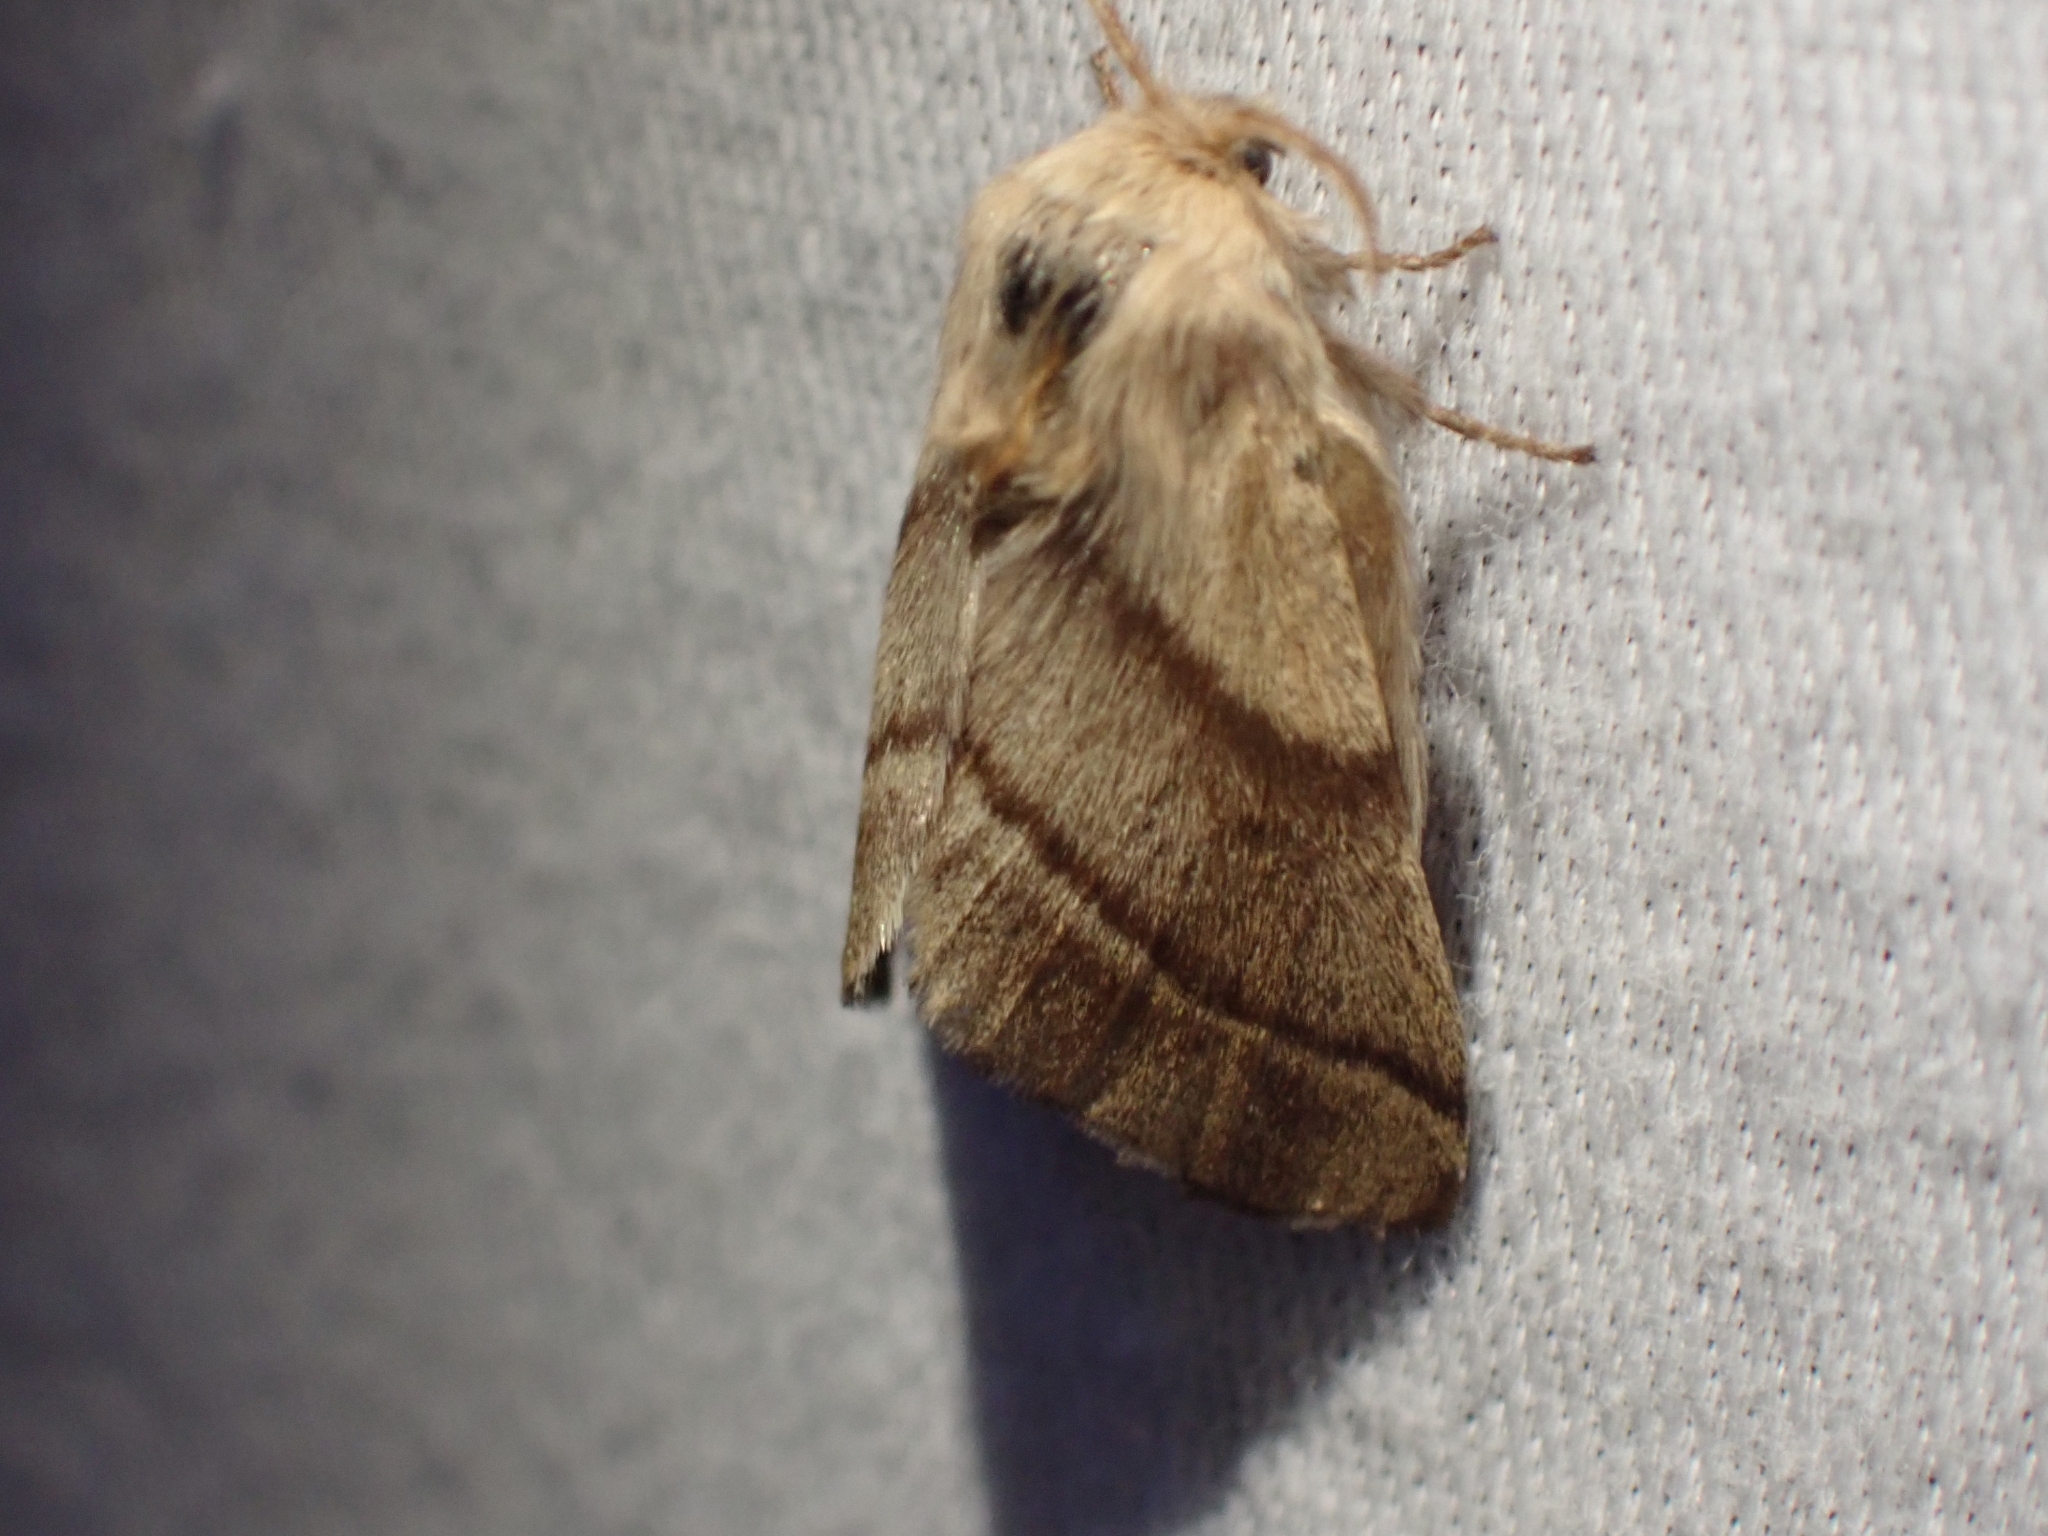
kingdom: Animalia
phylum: Arthropoda
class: Insecta
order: Lepidoptera
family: Lasiocampidae
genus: Malacosoma
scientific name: Malacosoma disstria
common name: Forest tent caterpillar
